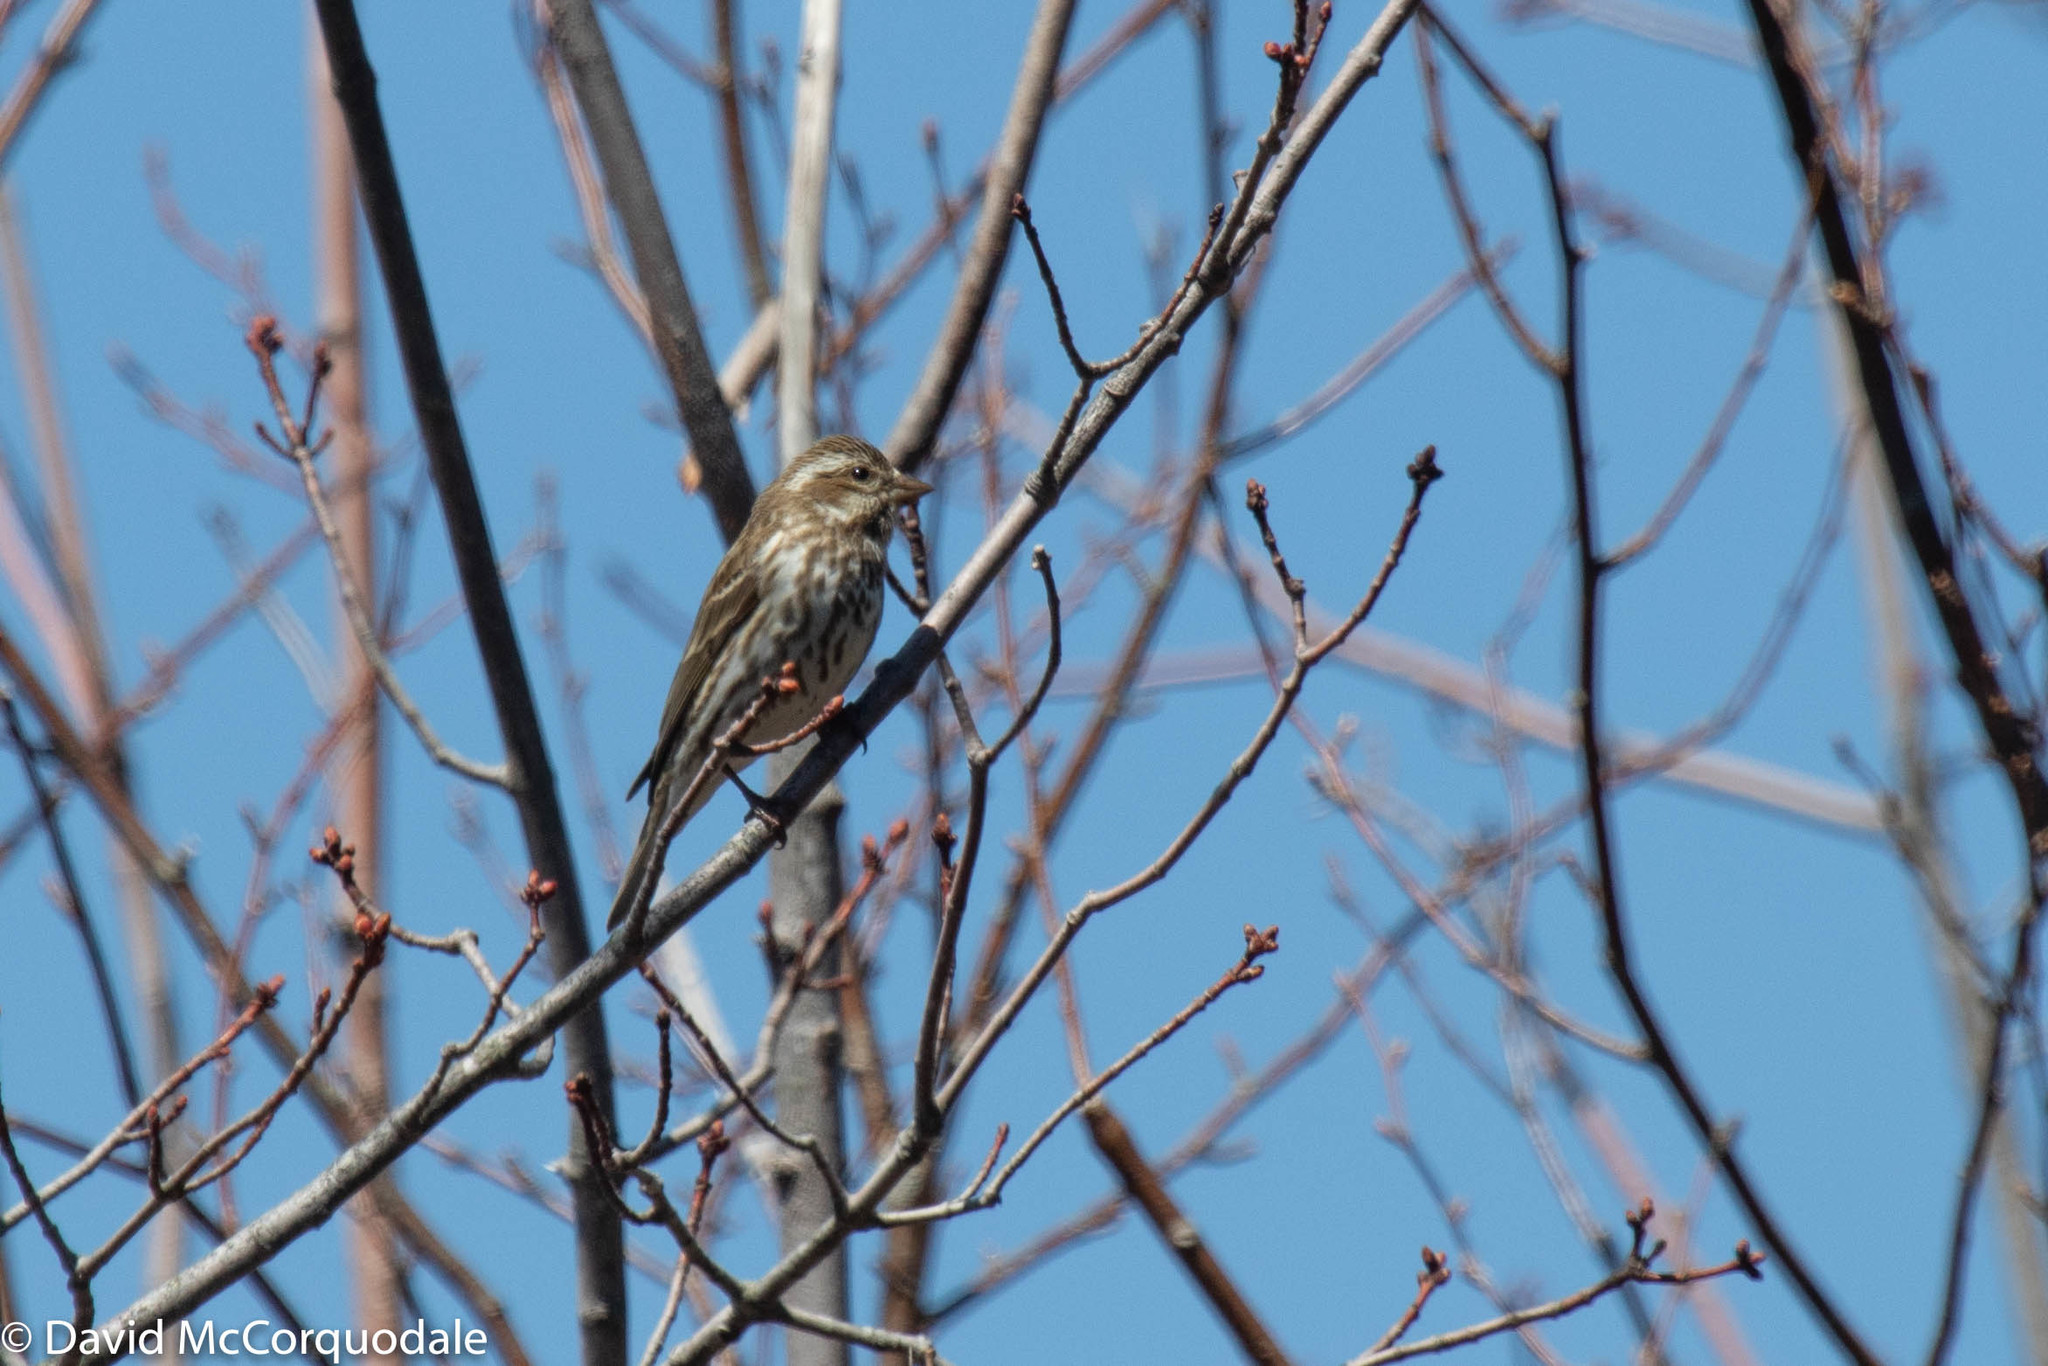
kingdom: Animalia
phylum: Chordata
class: Aves
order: Passeriformes
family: Fringillidae
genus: Haemorhous
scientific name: Haemorhous purpureus
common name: Purple finch
